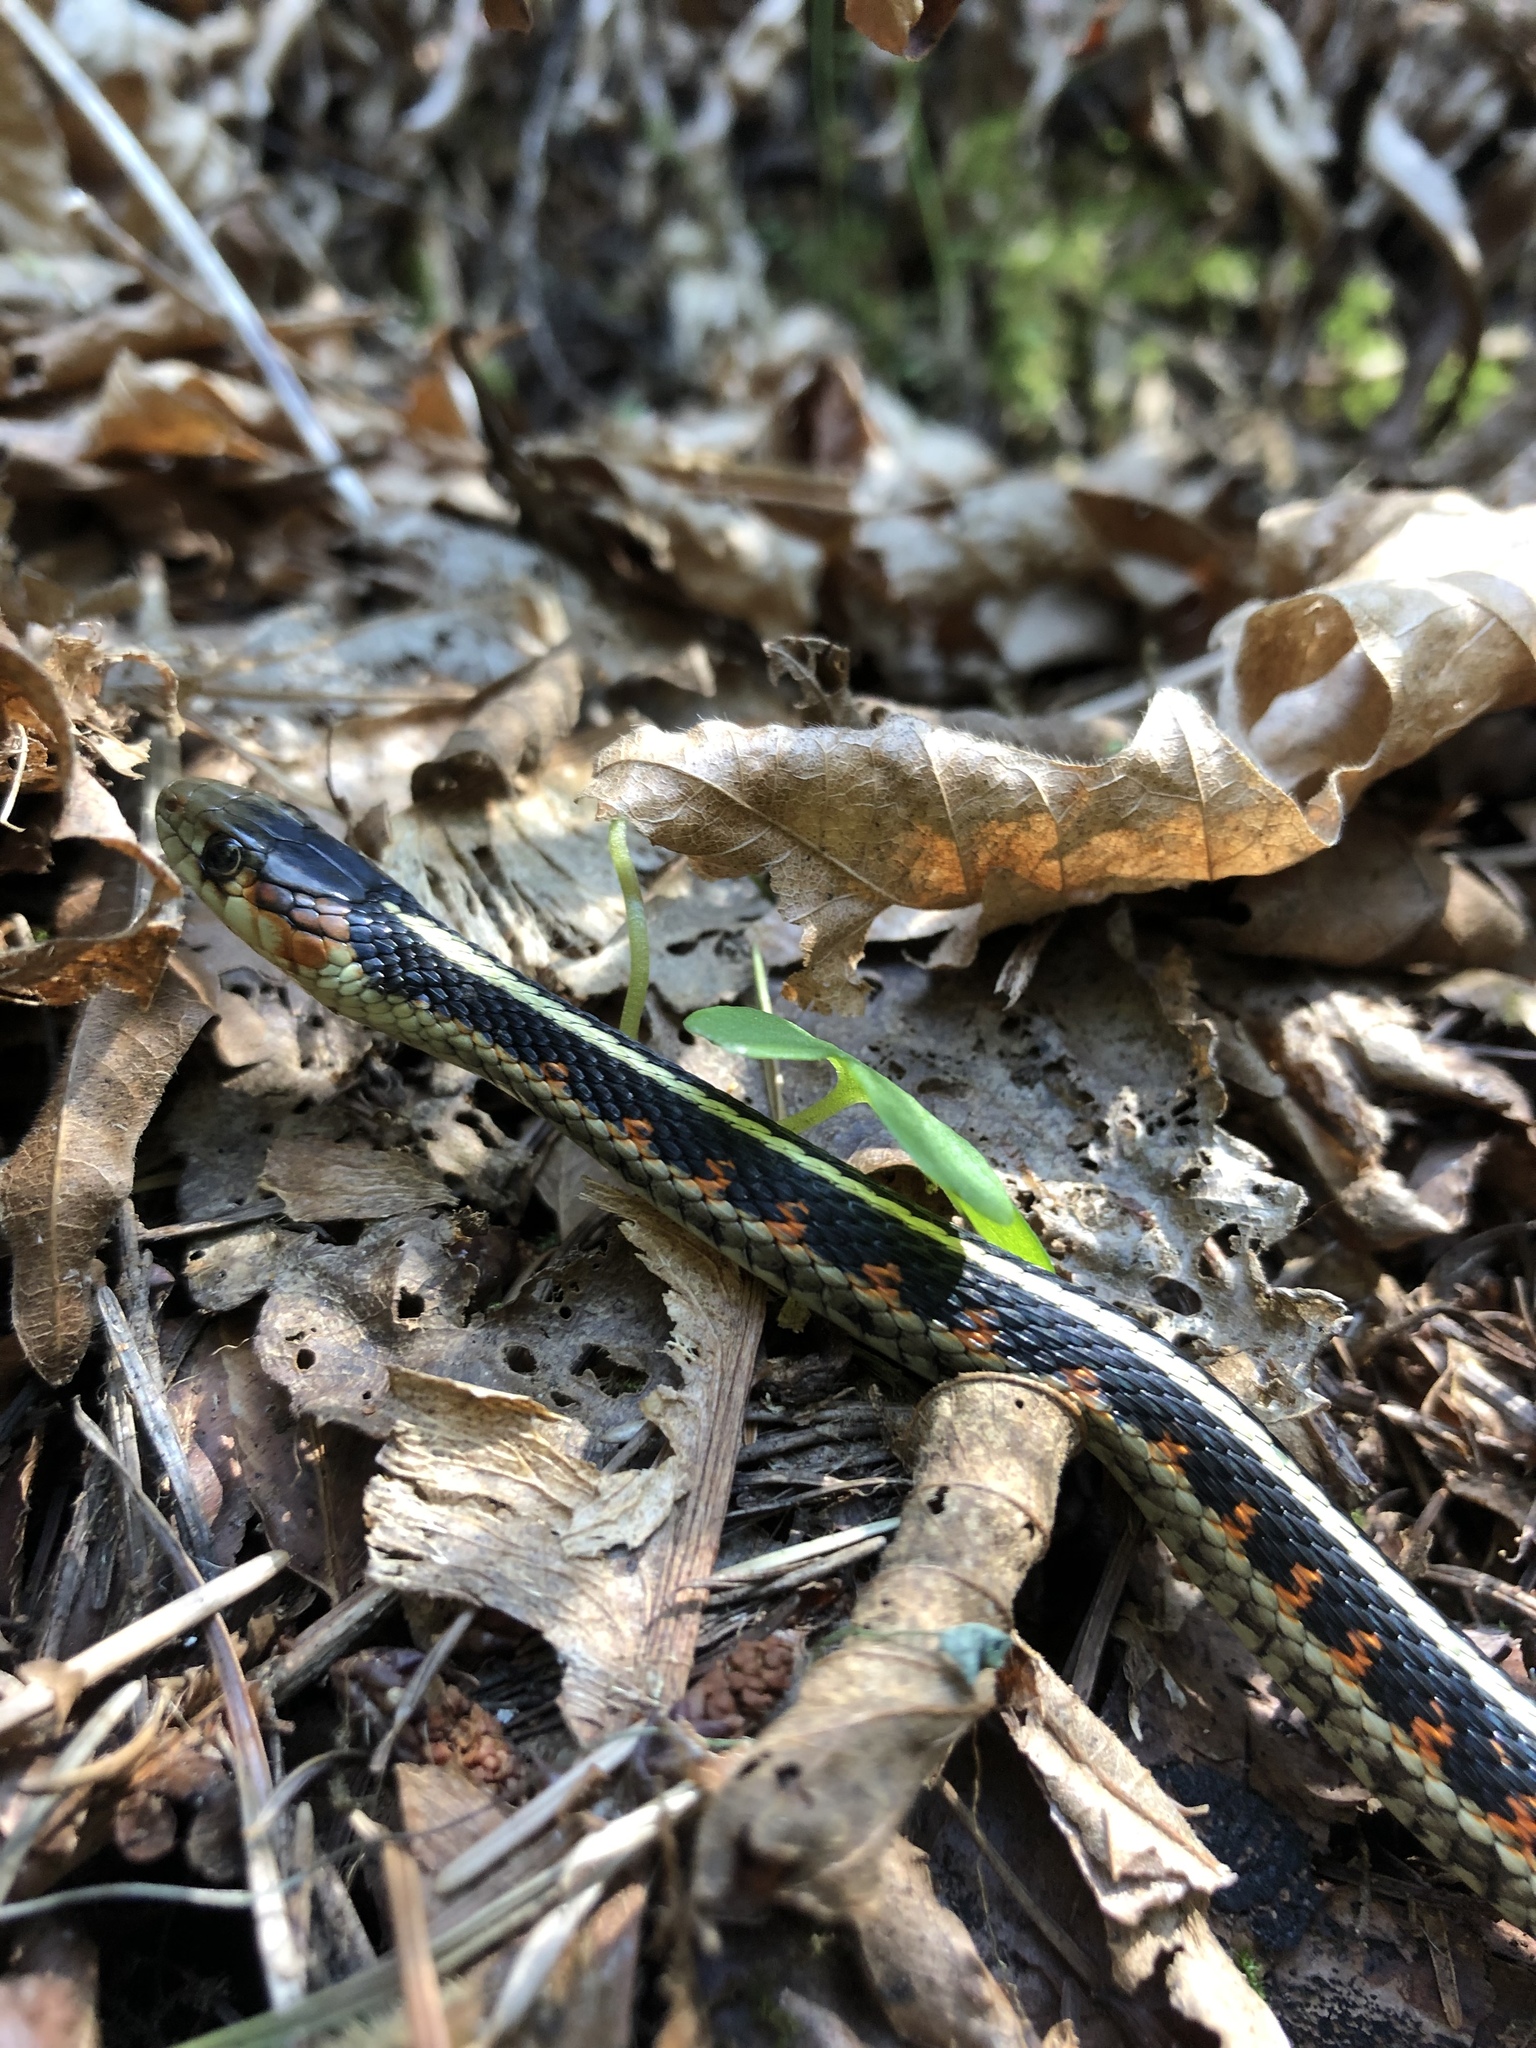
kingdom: Animalia
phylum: Chordata
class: Squamata
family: Colubridae
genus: Thamnophis
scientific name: Thamnophis sirtalis
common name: Common garter snake
